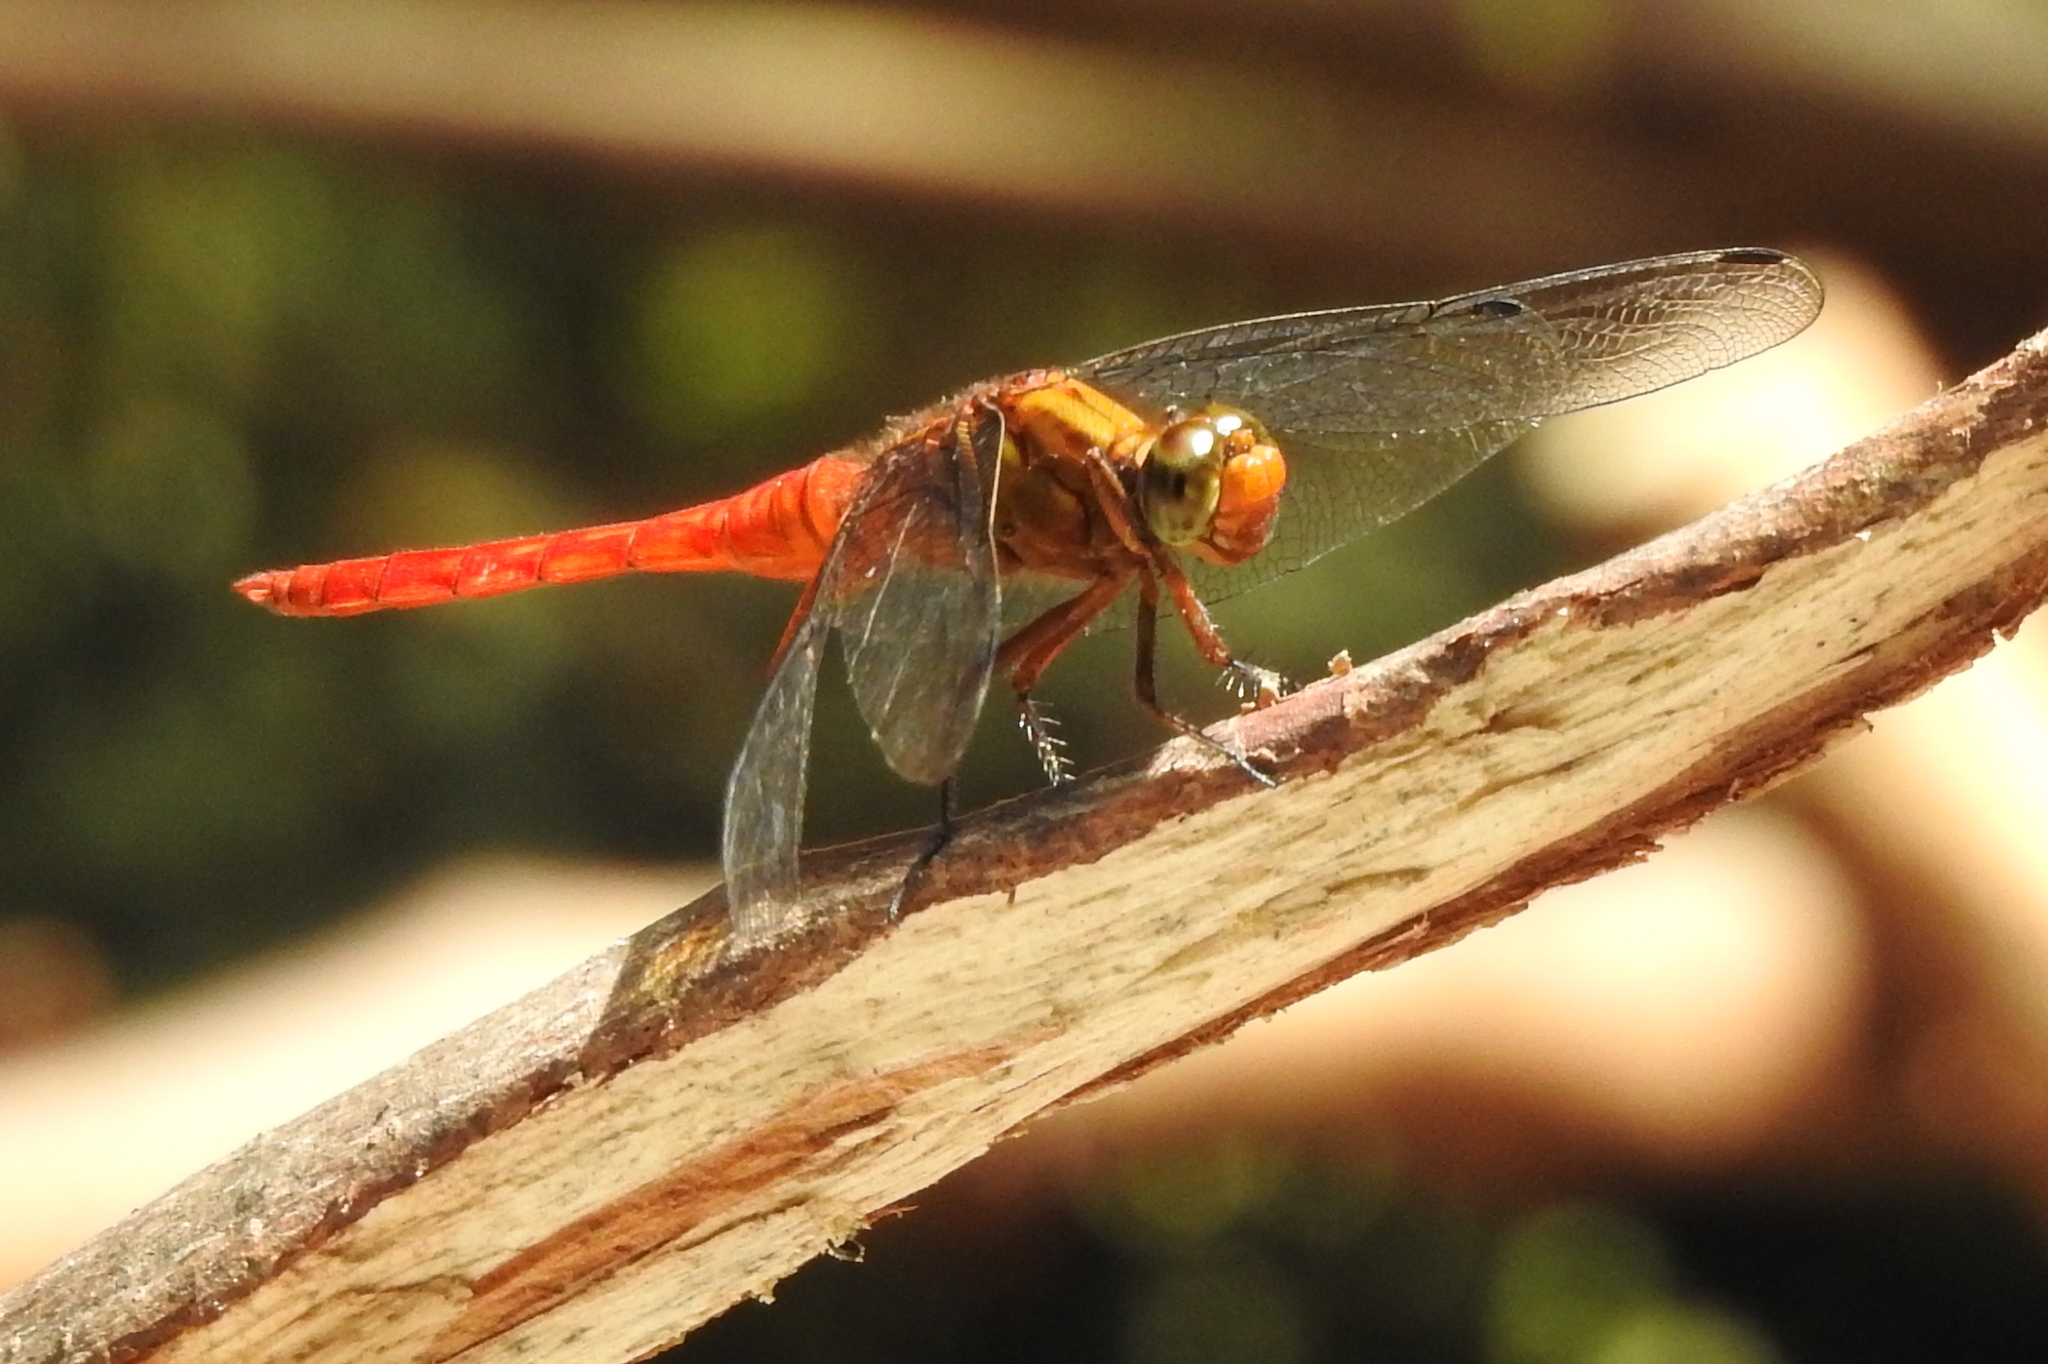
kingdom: Animalia
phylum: Arthropoda
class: Insecta
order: Odonata
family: Libellulidae
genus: Orthetrum
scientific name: Orthetrum testaceum
